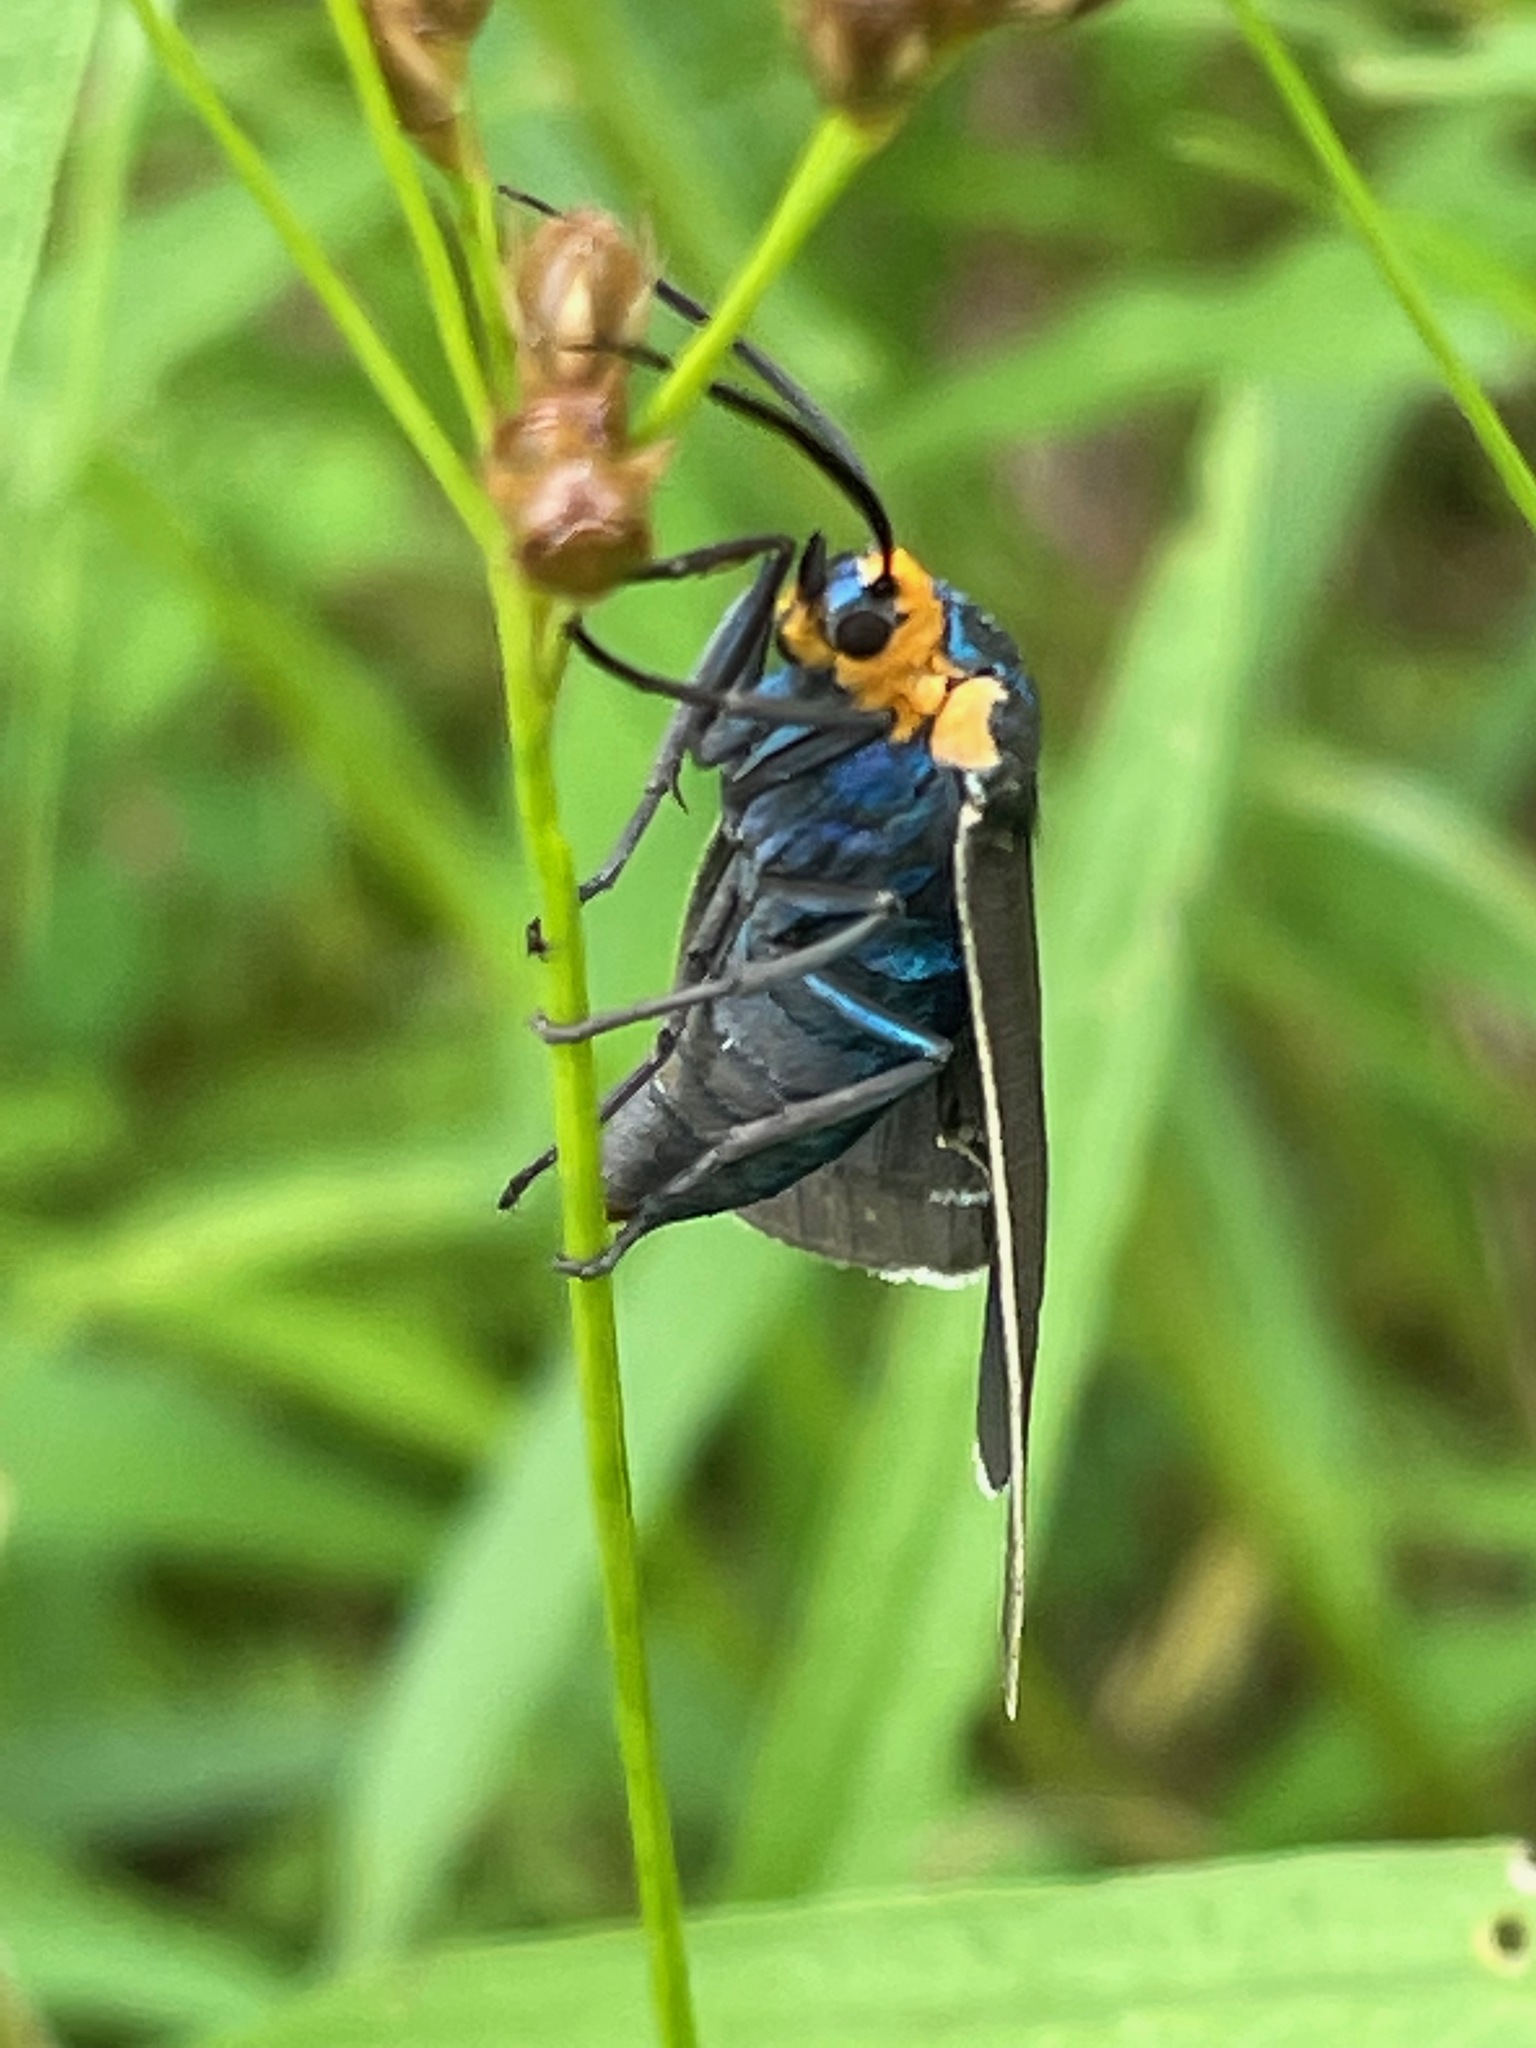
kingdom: Animalia
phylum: Arthropoda
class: Insecta
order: Lepidoptera
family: Erebidae
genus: Ctenucha
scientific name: Ctenucha virginica
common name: Virginia ctenucha moth
